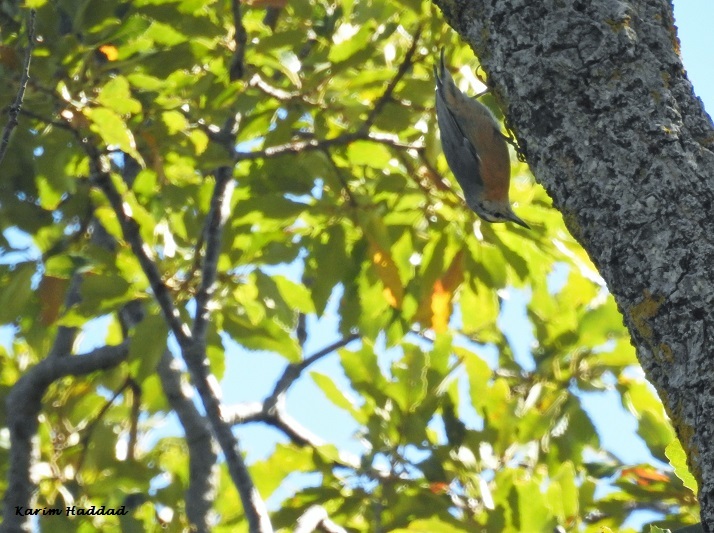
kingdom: Animalia
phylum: Chordata
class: Aves
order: Passeriformes
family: Sittidae
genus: Sitta
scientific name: Sitta ledanti
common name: Algerian nuthatch
